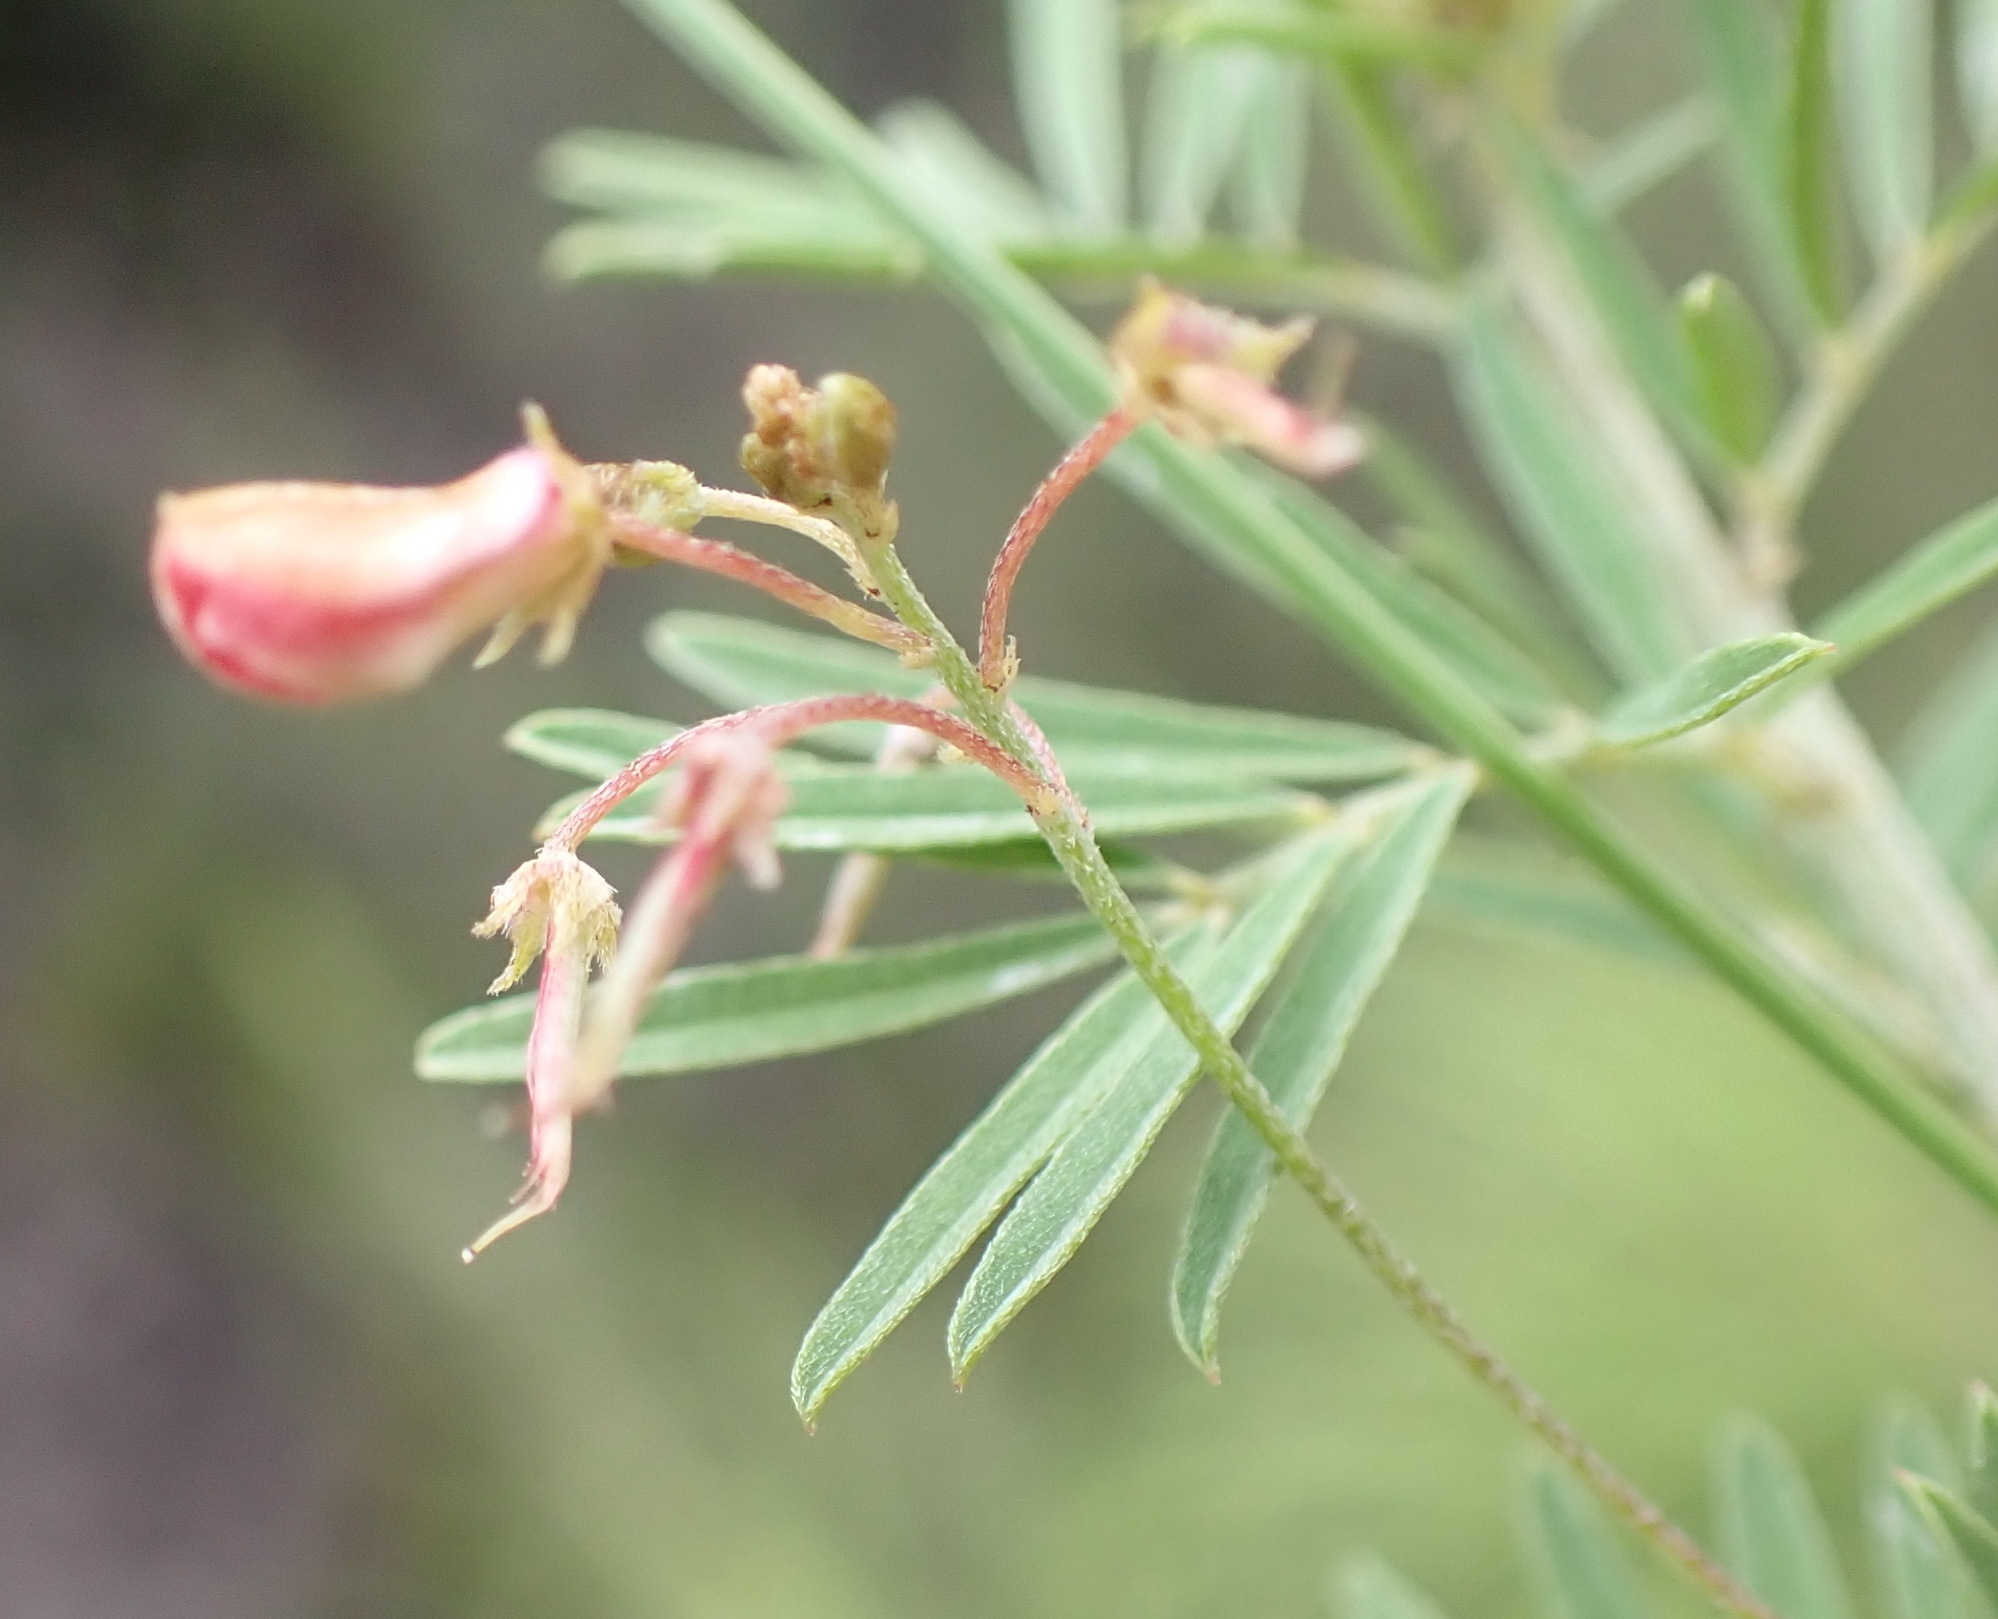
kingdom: Plantae
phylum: Tracheophyta
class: Magnoliopsida
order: Fabales
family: Fabaceae
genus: Indigofera
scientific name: Indigofera verrucosa
